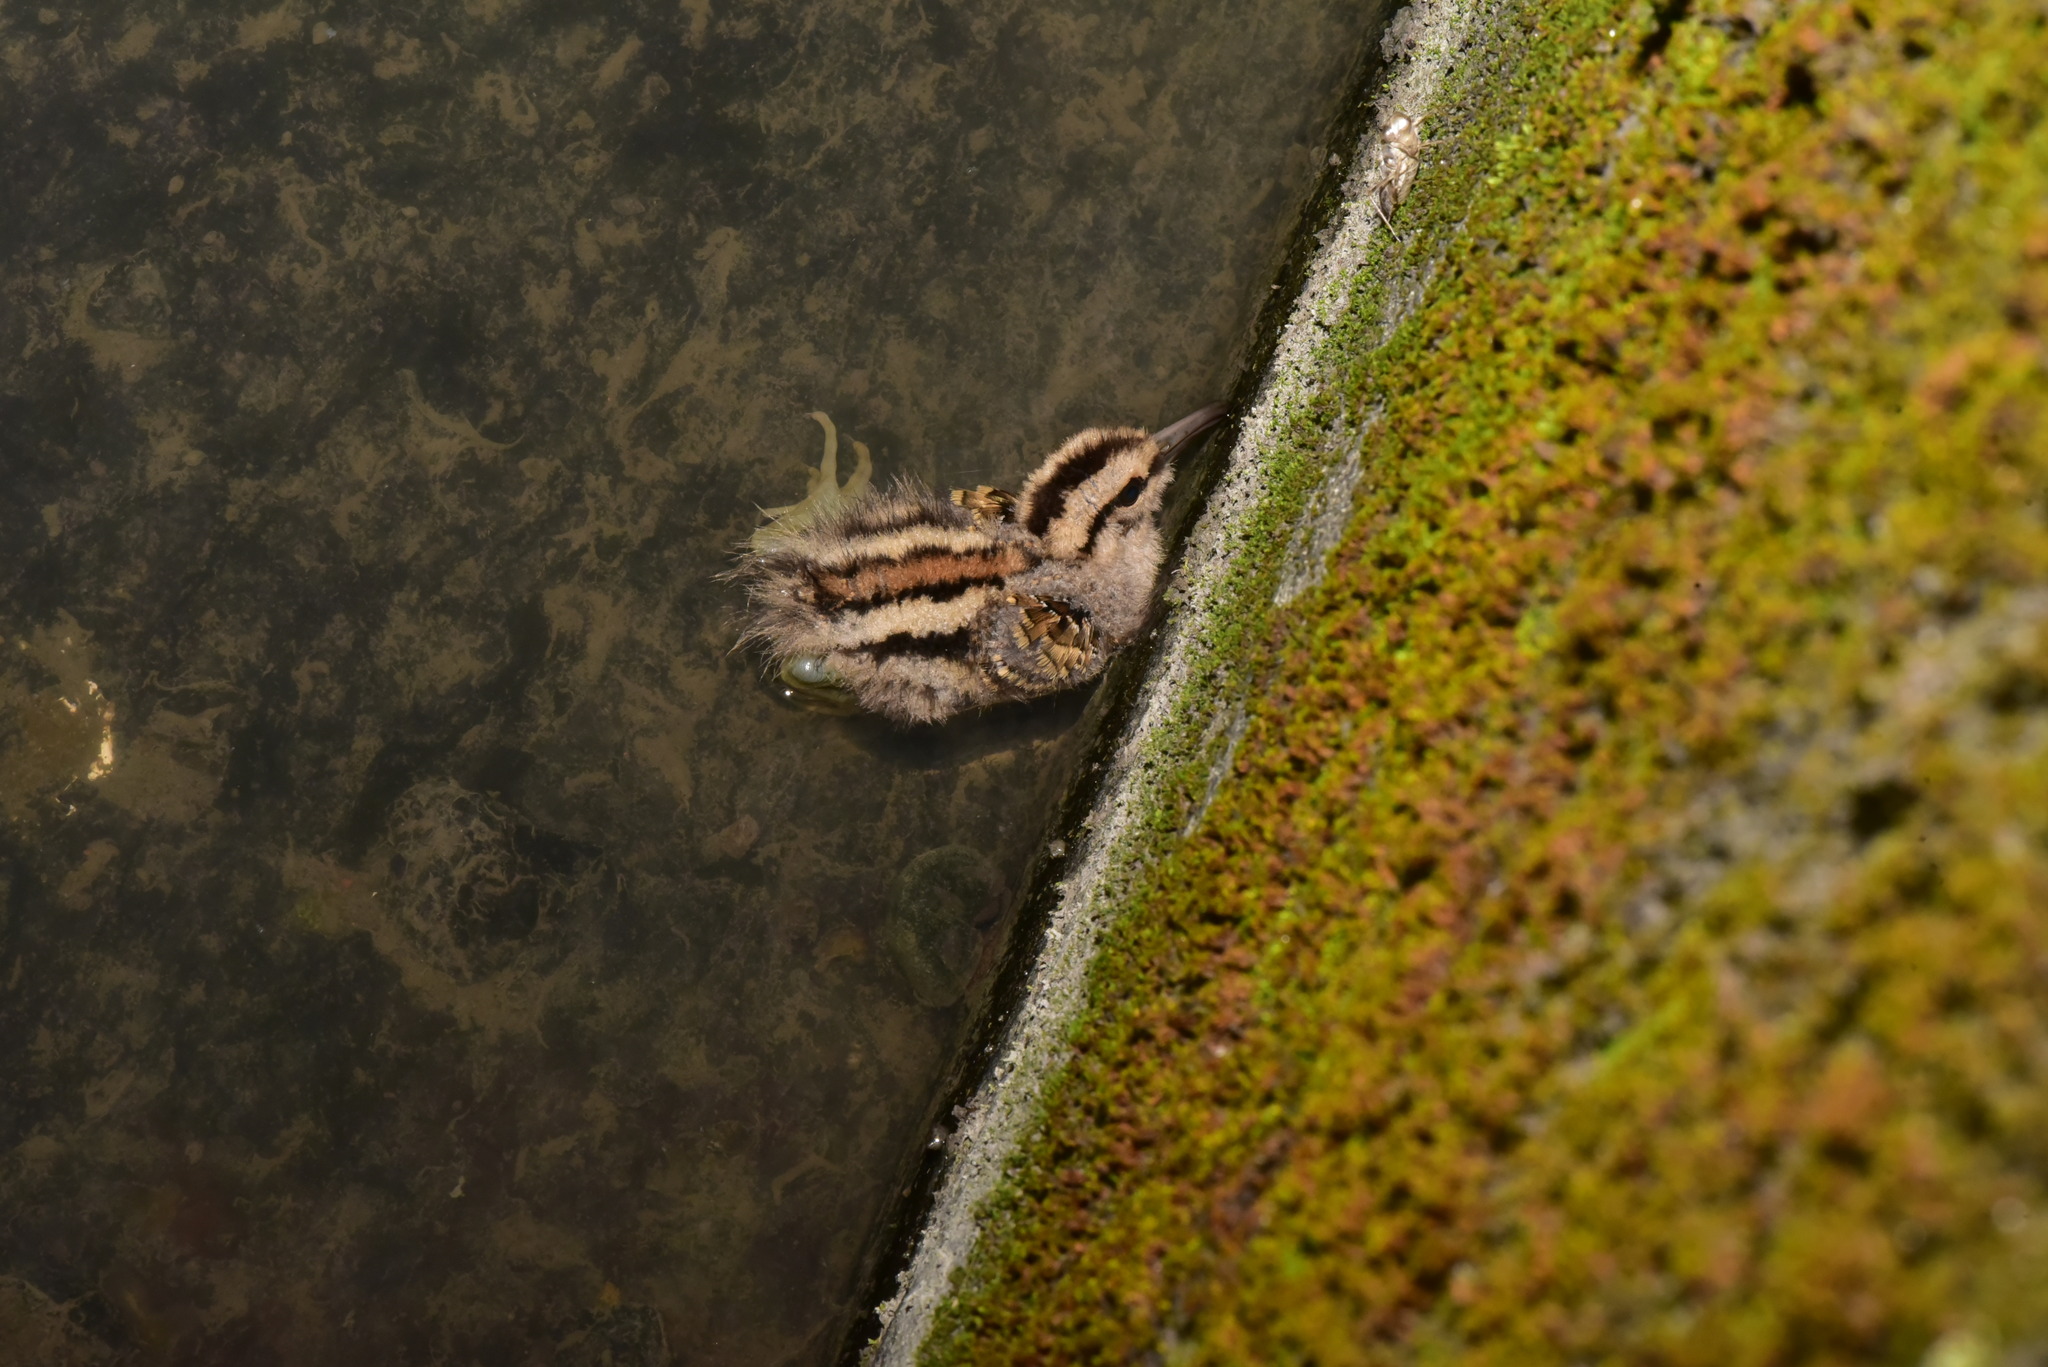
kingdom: Animalia
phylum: Chordata
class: Aves
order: Charadriiformes
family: Rostratulidae
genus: Rostratula
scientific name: Rostratula benghalensis
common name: Greater painted-snipe
